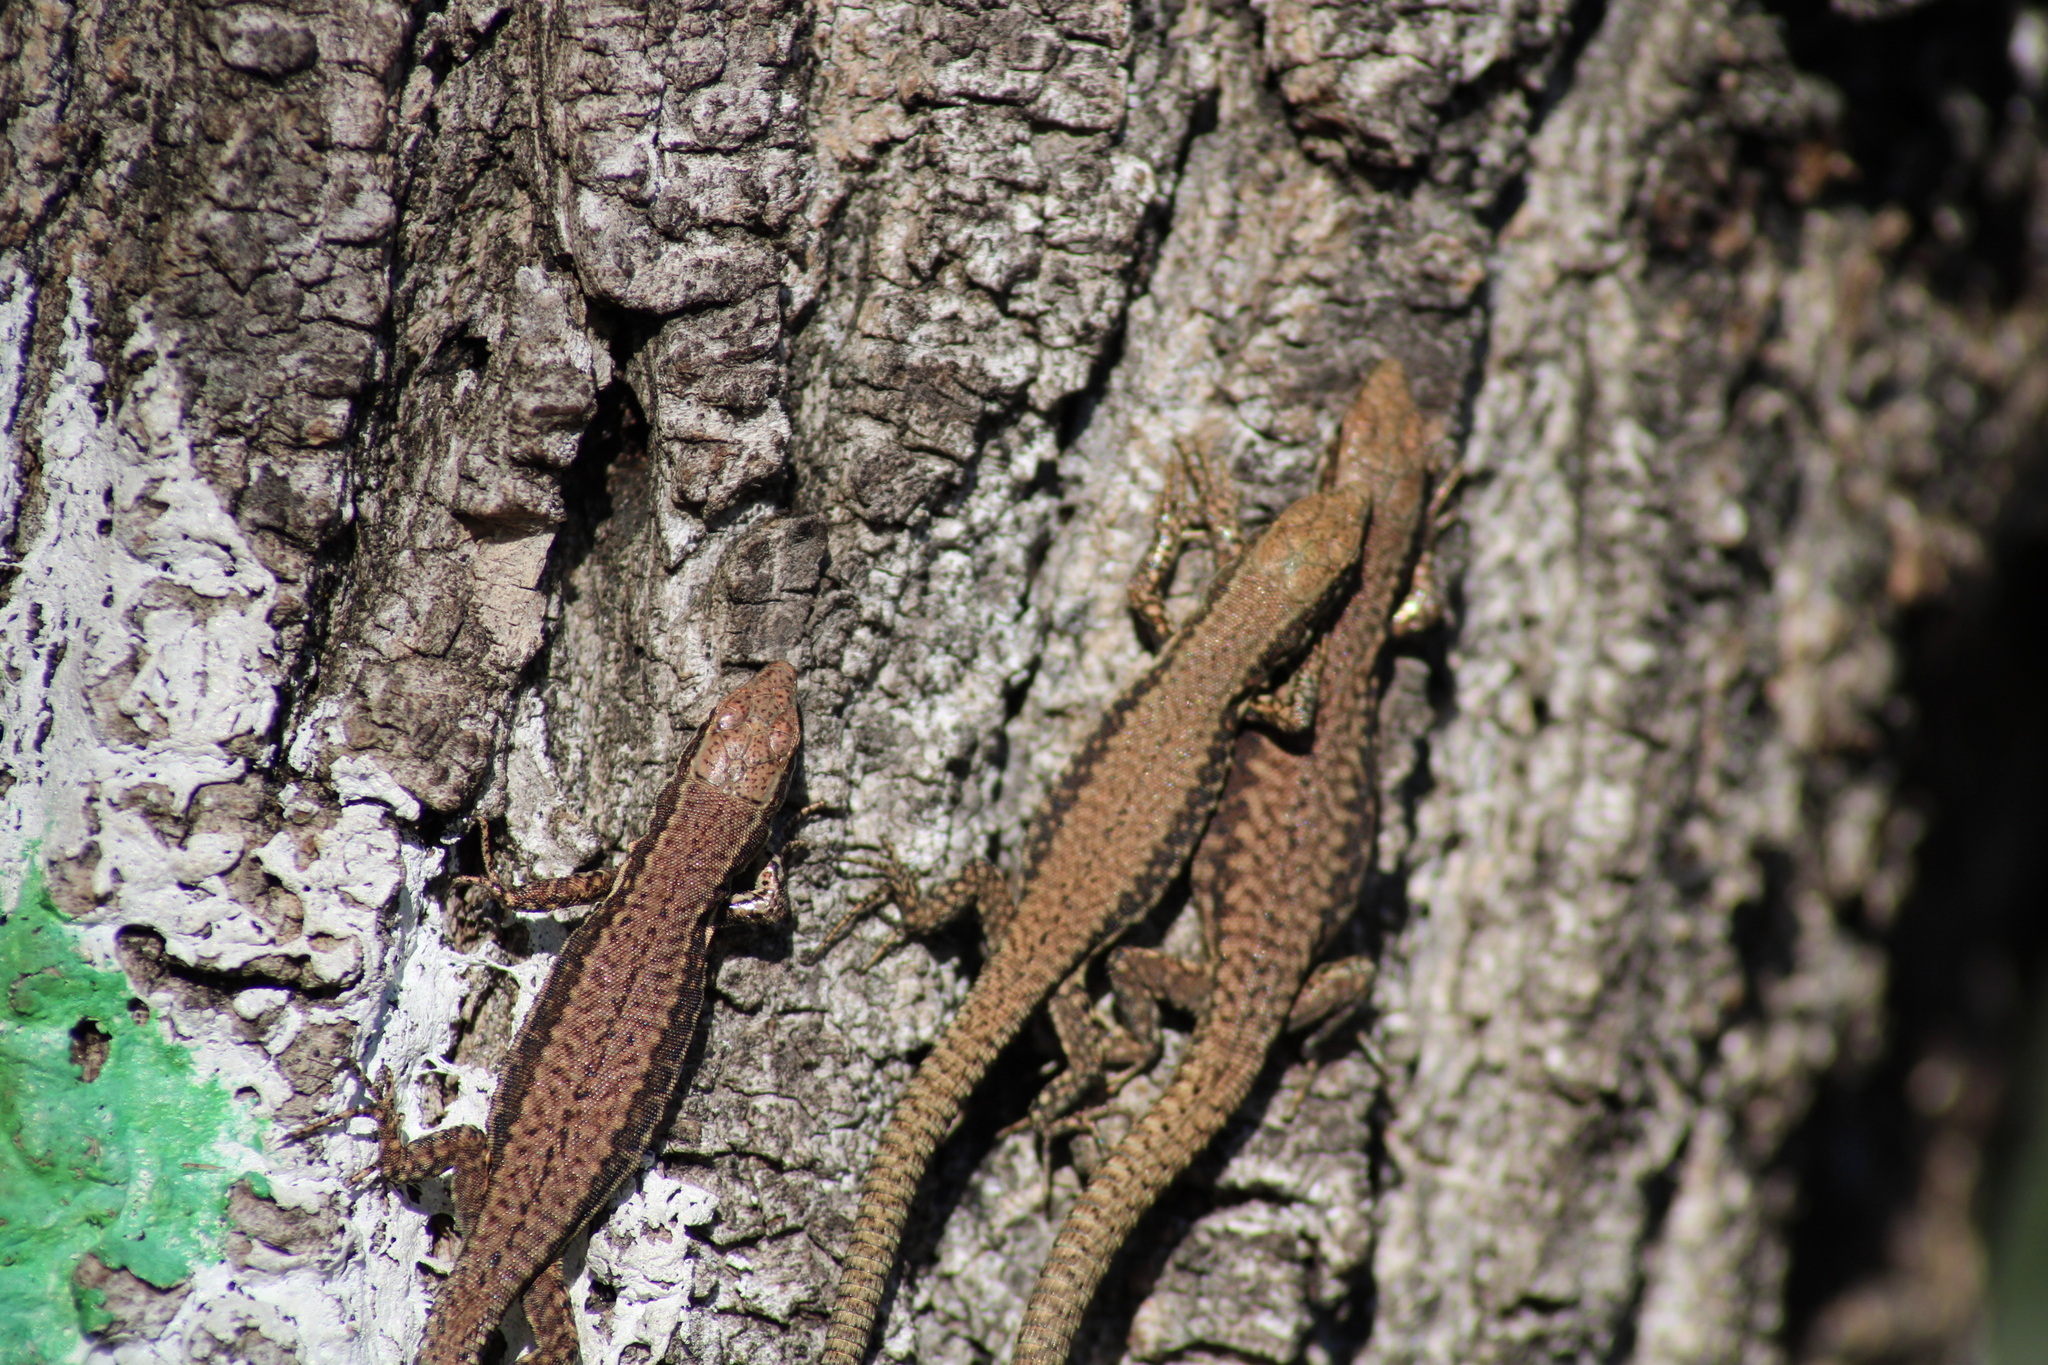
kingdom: Animalia
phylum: Chordata
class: Squamata
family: Lacertidae
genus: Podarcis
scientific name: Podarcis muralis
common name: Common wall lizard
